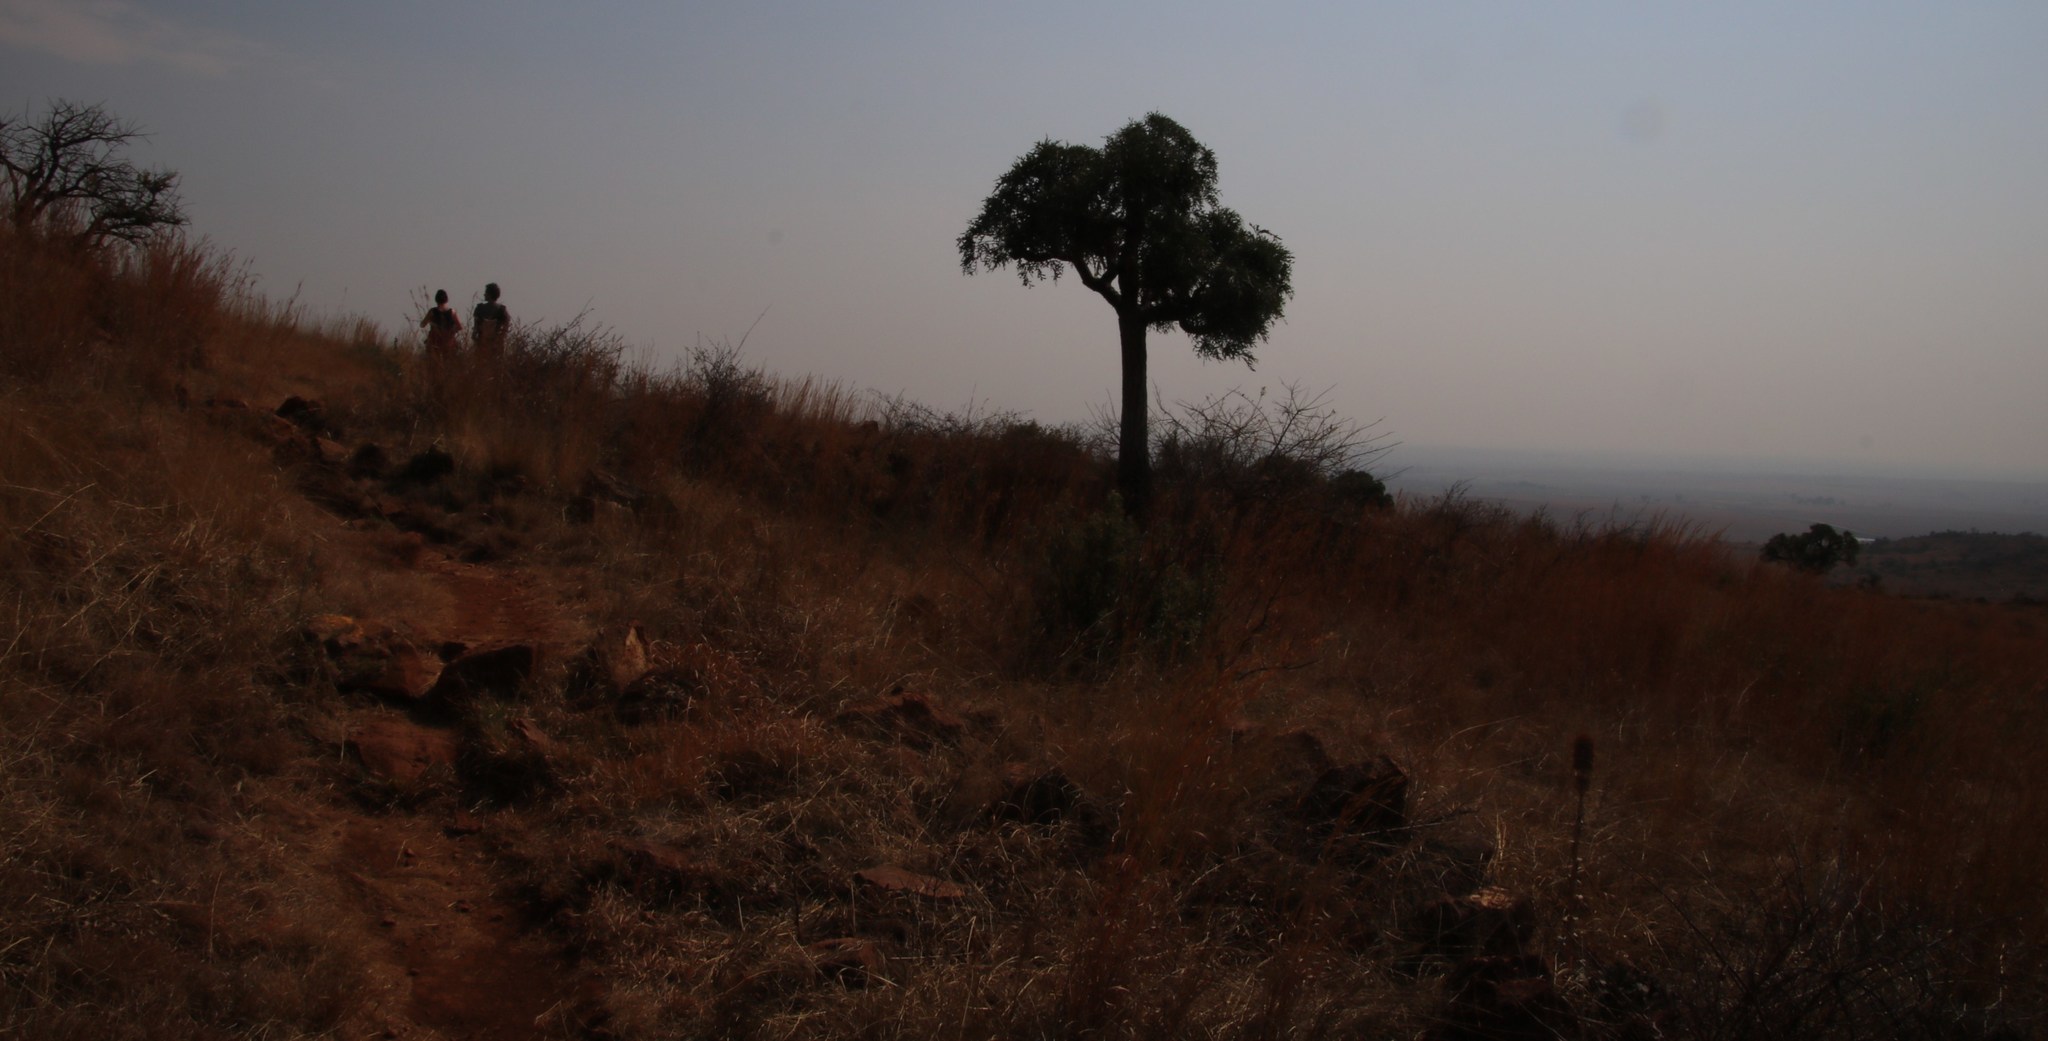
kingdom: Plantae
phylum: Tracheophyta
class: Magnoliopsida
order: Apiales
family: Araliaceae
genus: Cussonia
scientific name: Cussonia paniculata
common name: Cabbagetree
